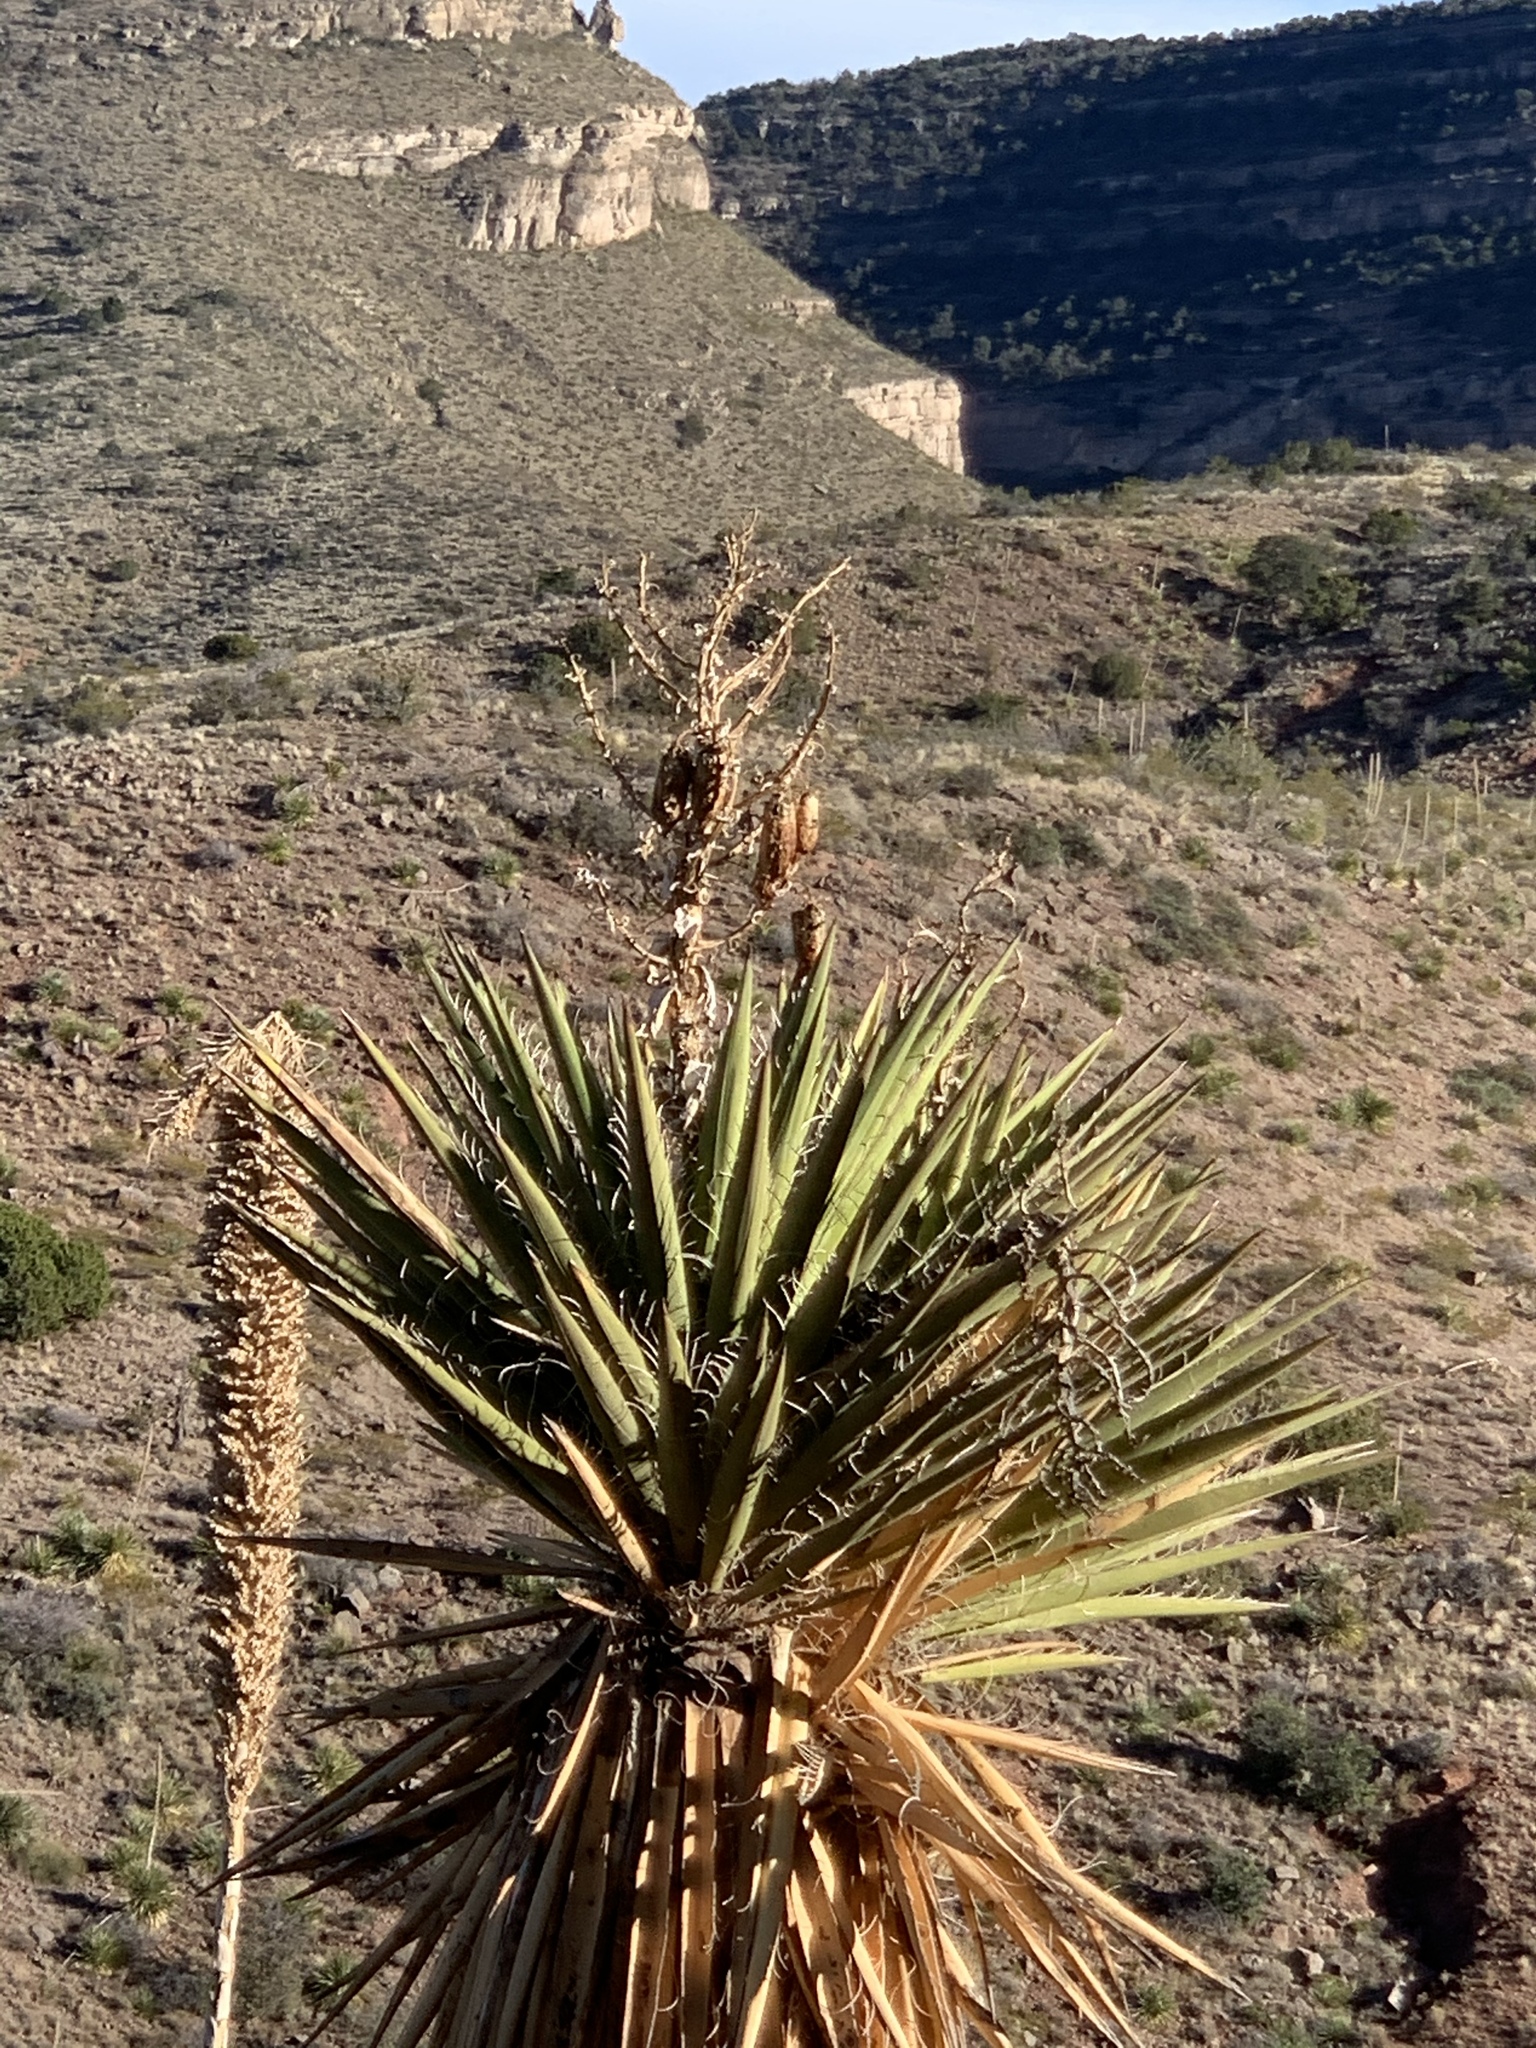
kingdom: Plantae
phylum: Tracheophyta
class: Liliopsida
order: Asparagales
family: Asparagaceae
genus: Yucca
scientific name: Yucca treculiana
